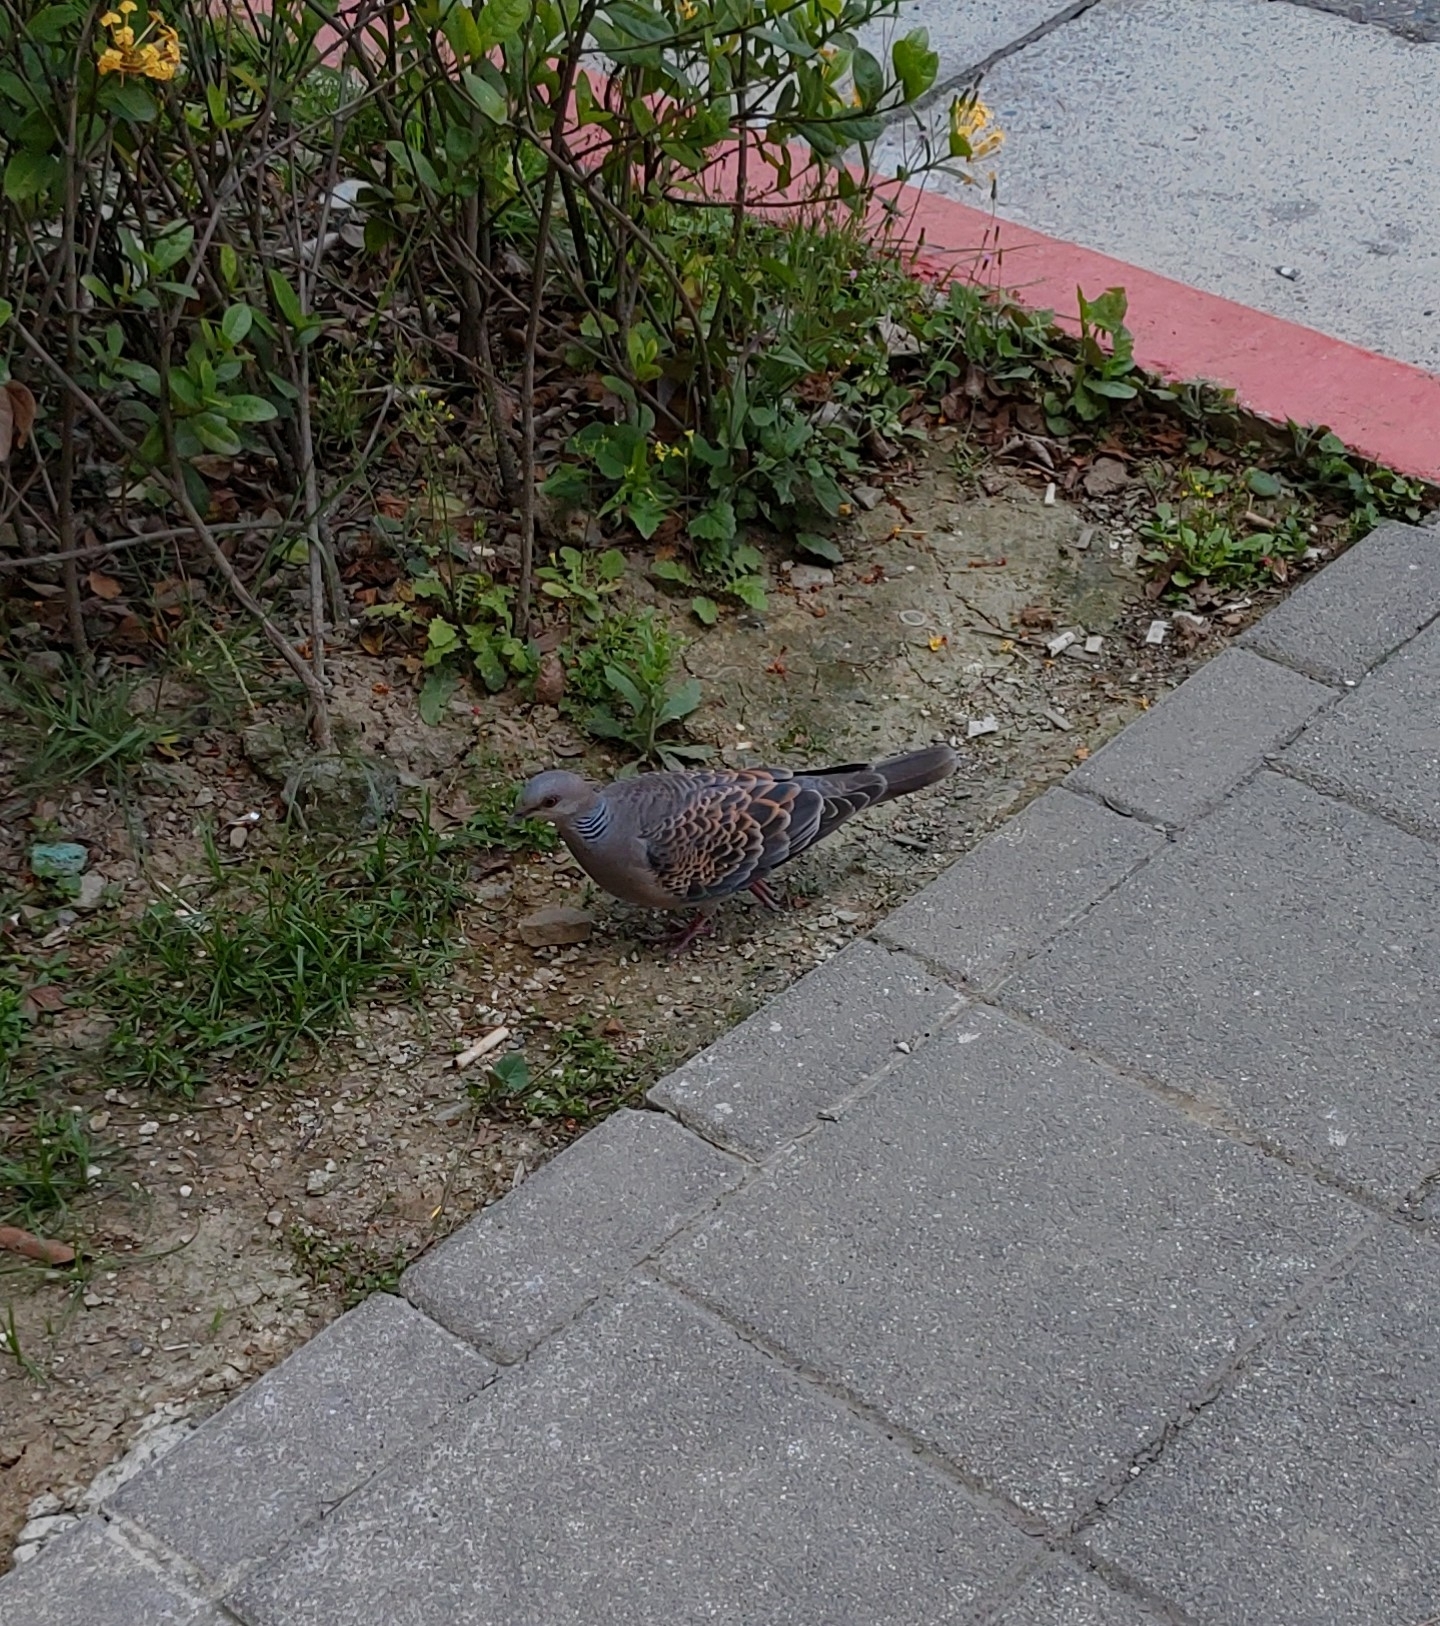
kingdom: Animalia
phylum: Chordata
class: Aves
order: Columbiformes
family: Columbidae
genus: Streptopelia
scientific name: Streptopelia orientalis
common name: Oriental turtle dove
